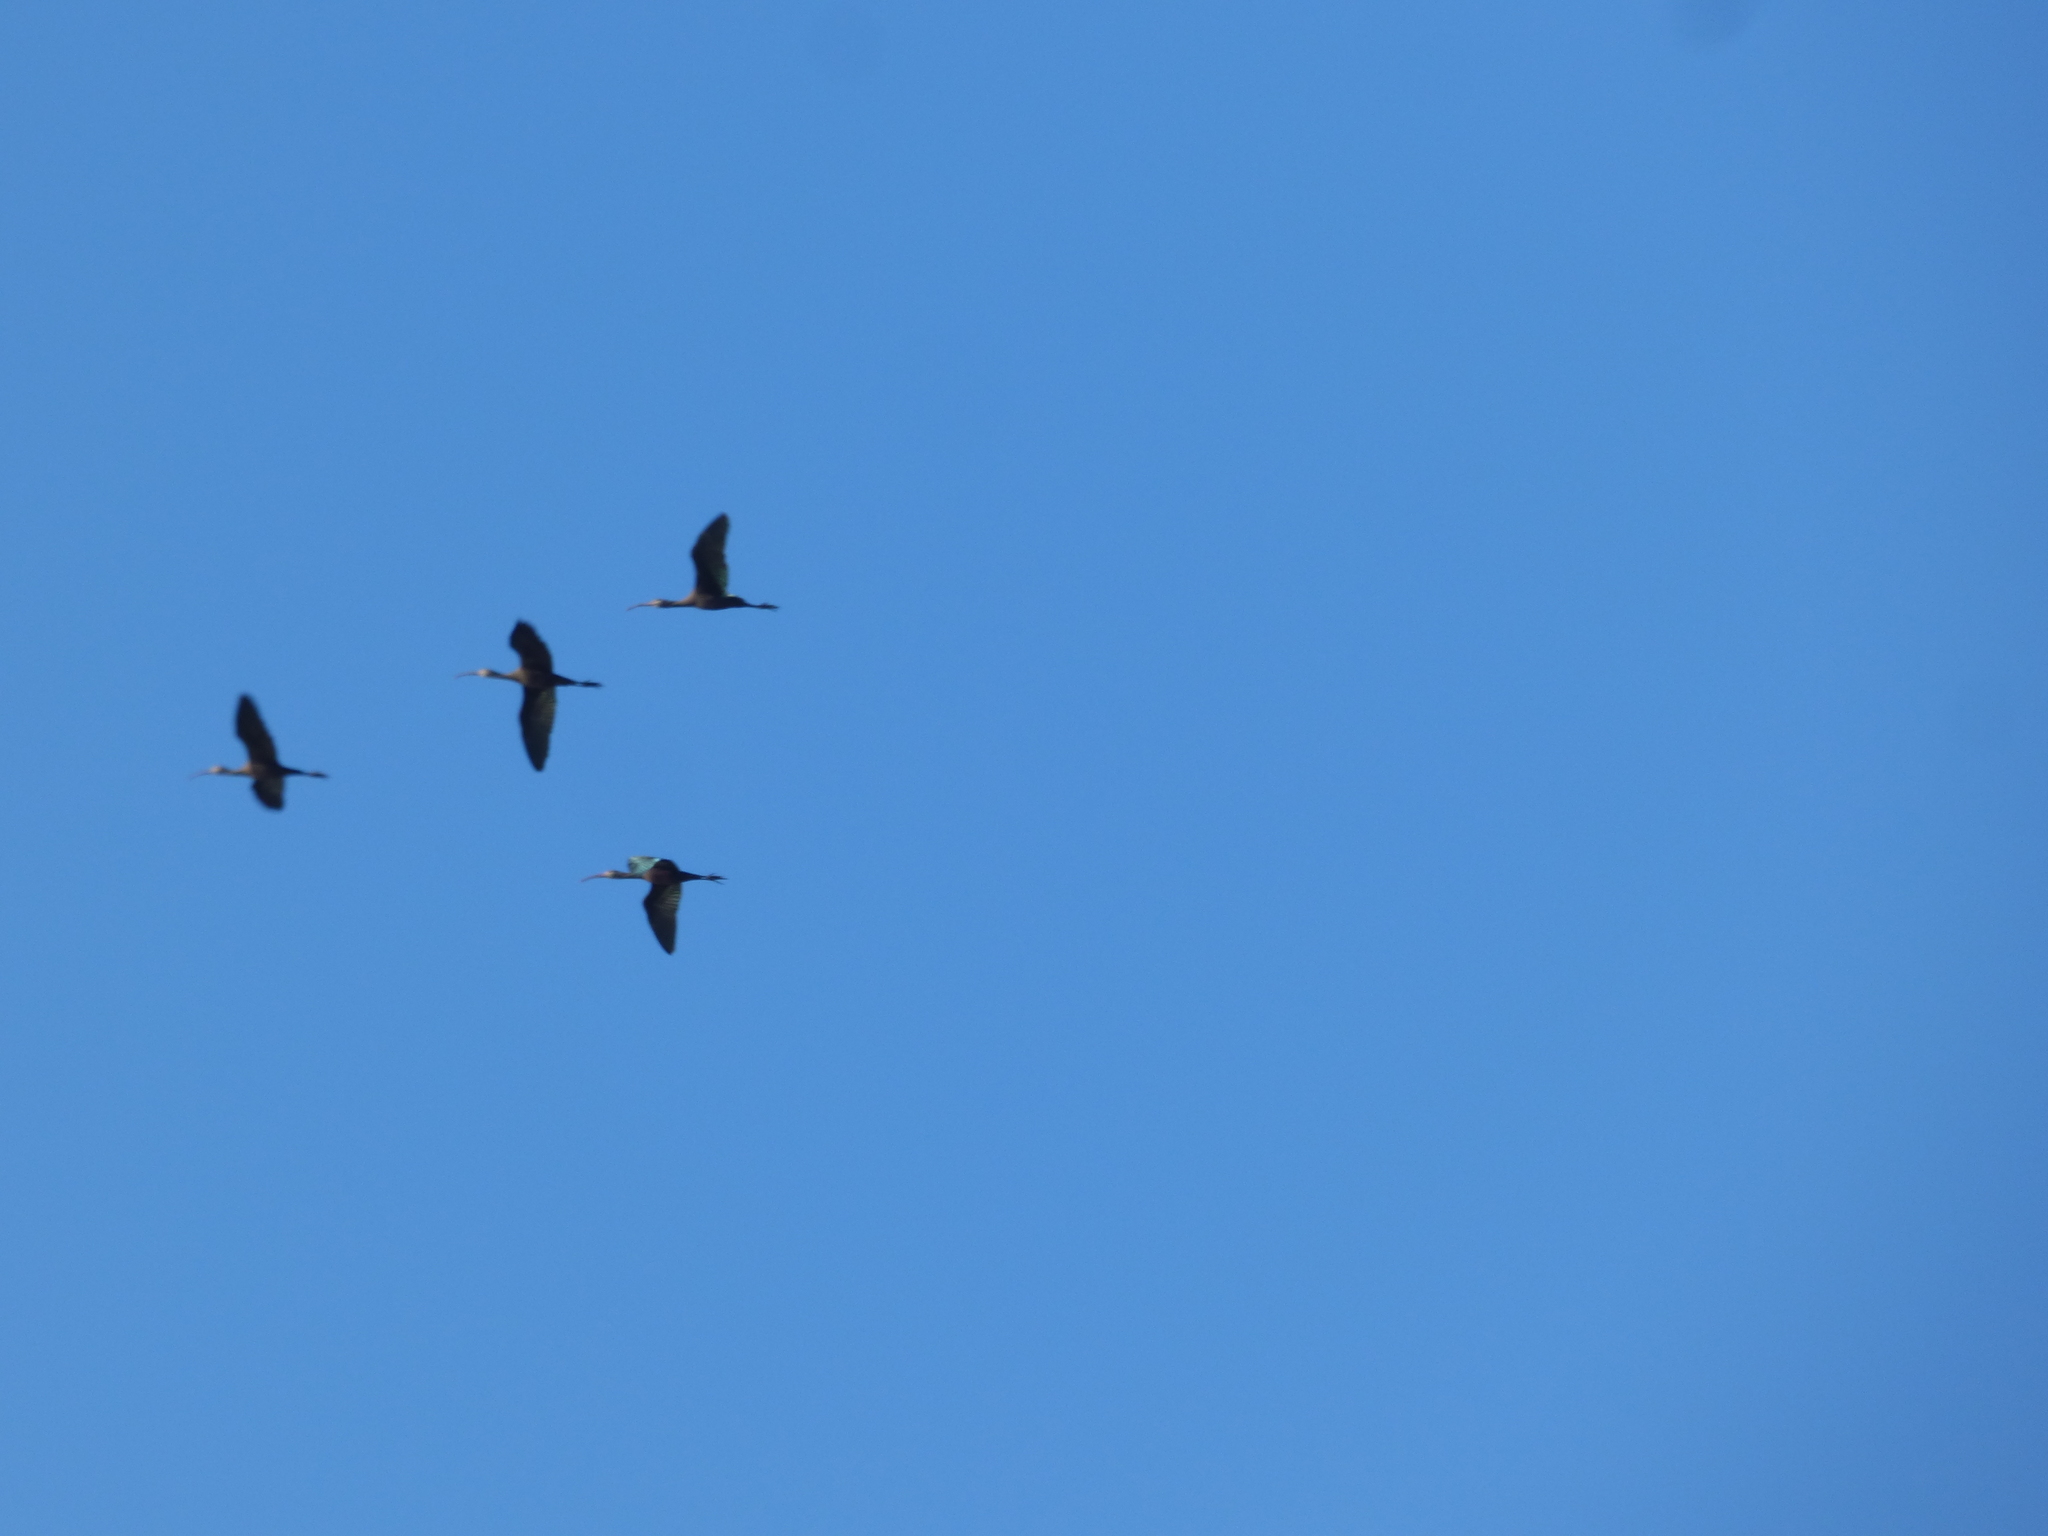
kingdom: Animalia
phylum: Chordata
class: Aves
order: Pelecaniformes
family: Threskiornithidae
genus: Plegadis
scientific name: Plegadis chihi
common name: White-faced ibis
